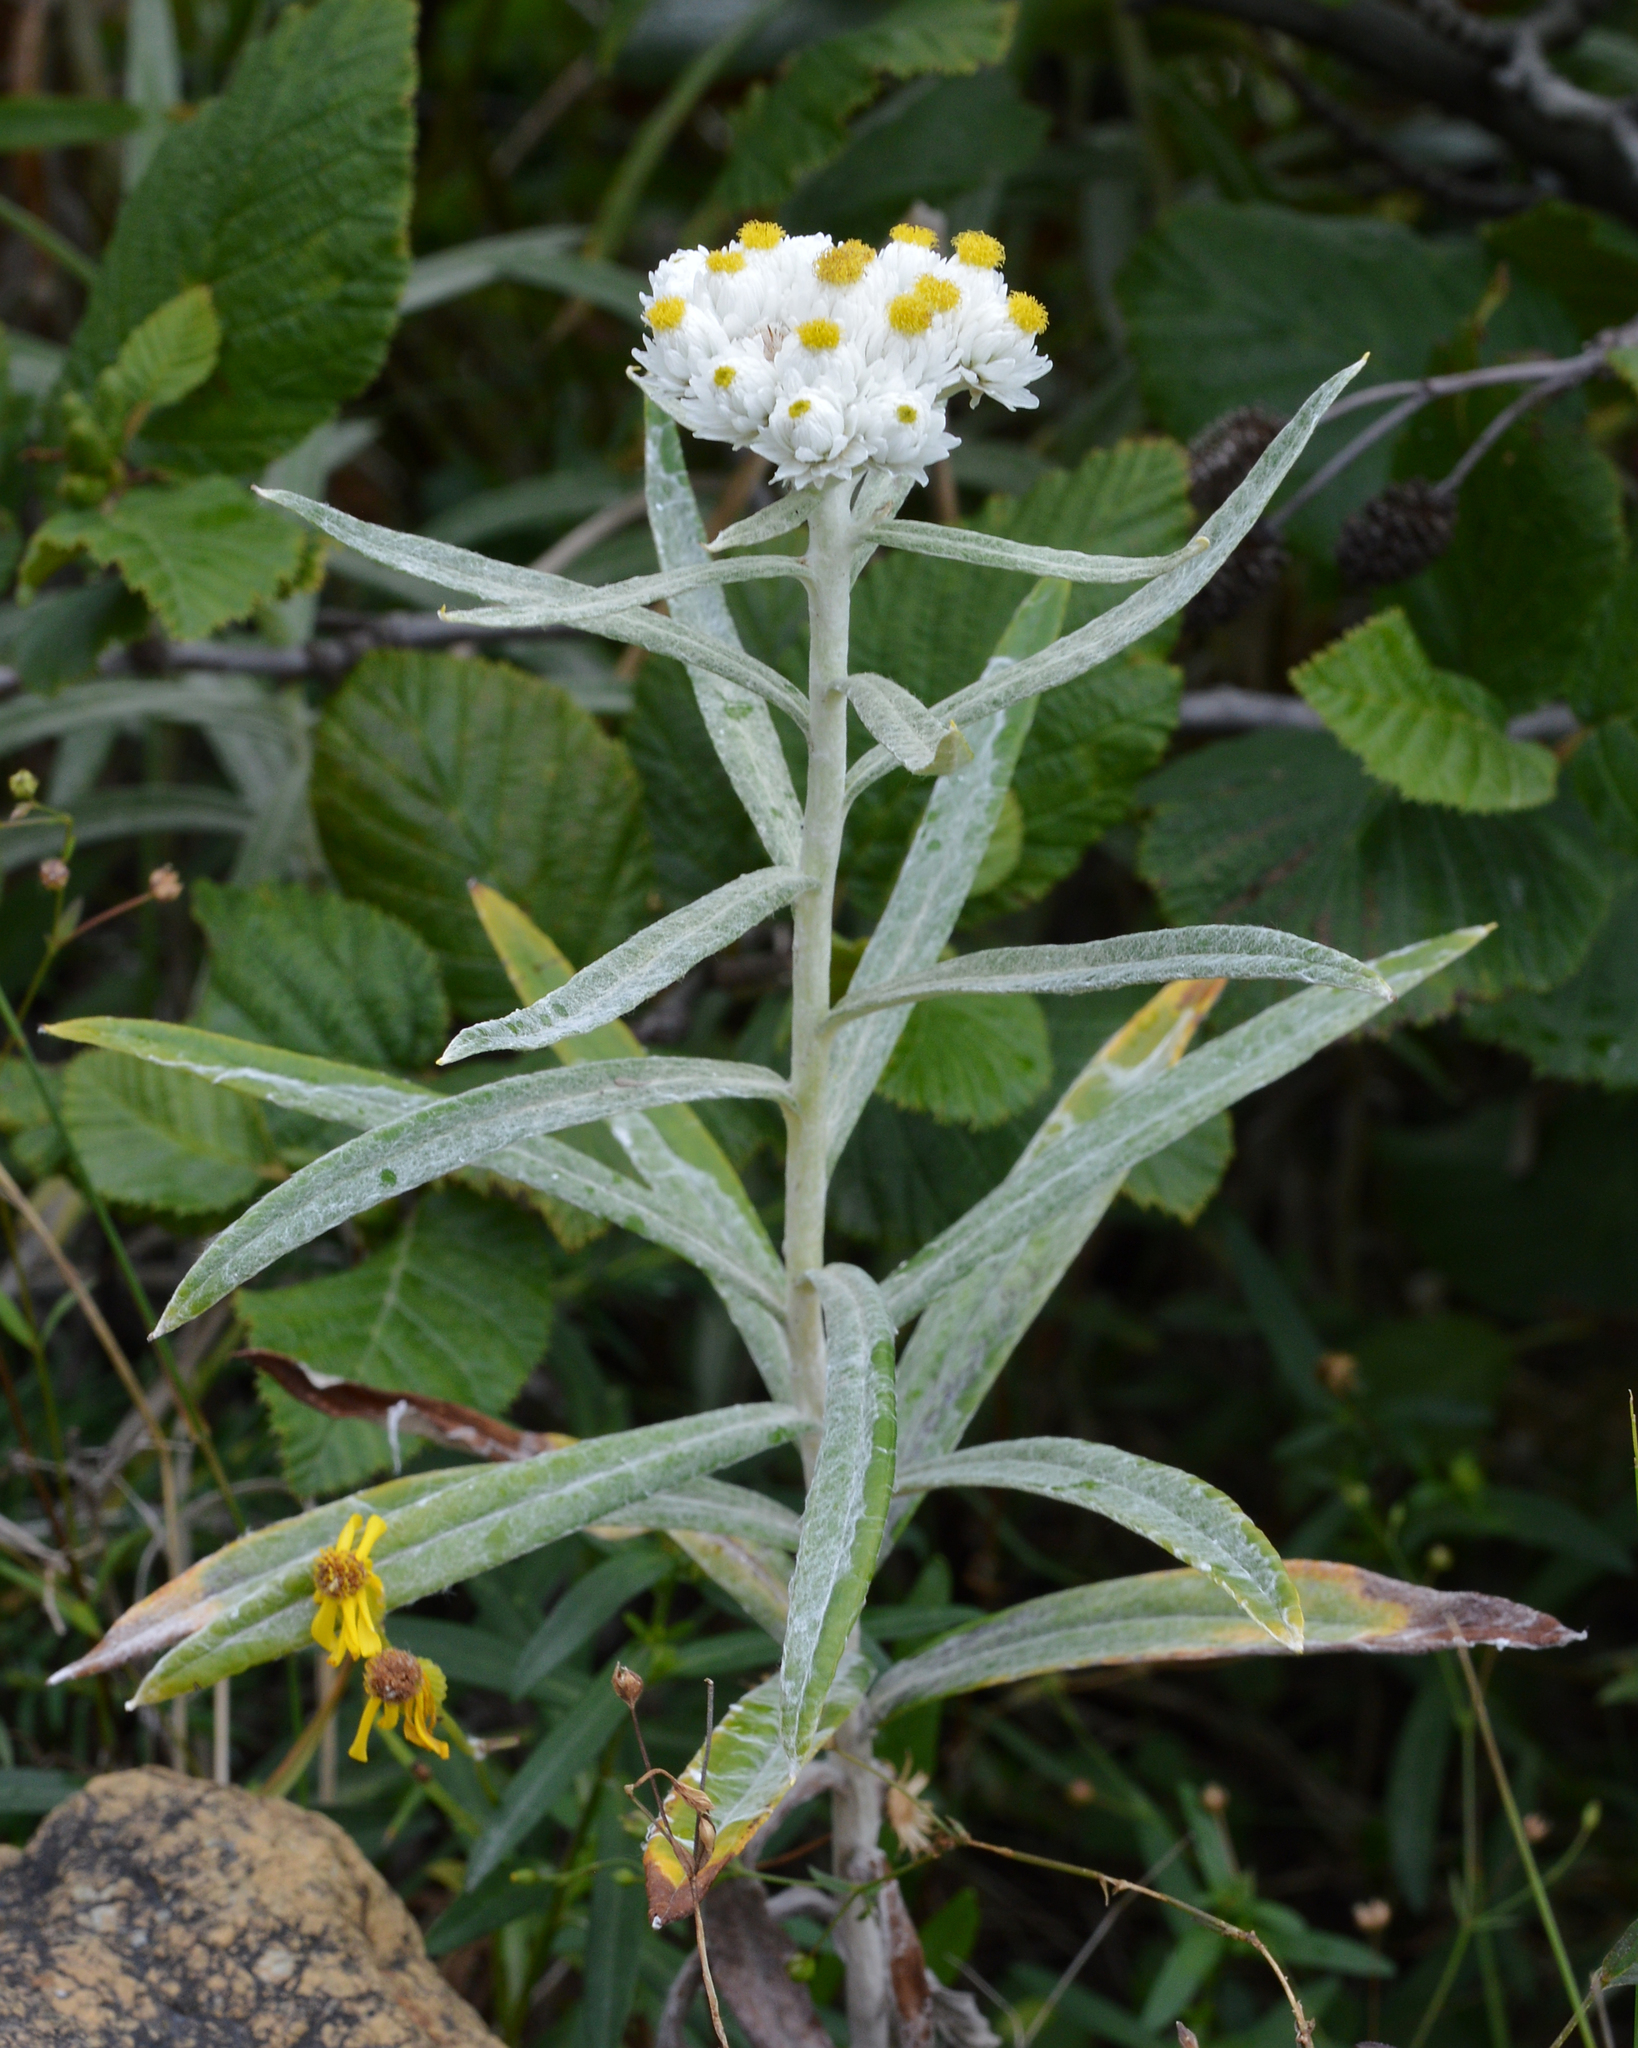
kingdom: Plantae
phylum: Tracheophyta
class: Magnoliopsida
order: Asterales
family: Asteraceae
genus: Anaphalis
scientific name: Anaphalis margaritacea
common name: Pearly everlasting
